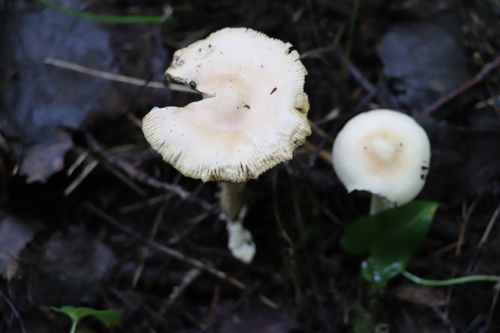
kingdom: Fungi
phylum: Basidiomycota
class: Agaricomycetes
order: Agaricales
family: Amanitaceae
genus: Amanita
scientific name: Amanita crocea
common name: Orange grisette
